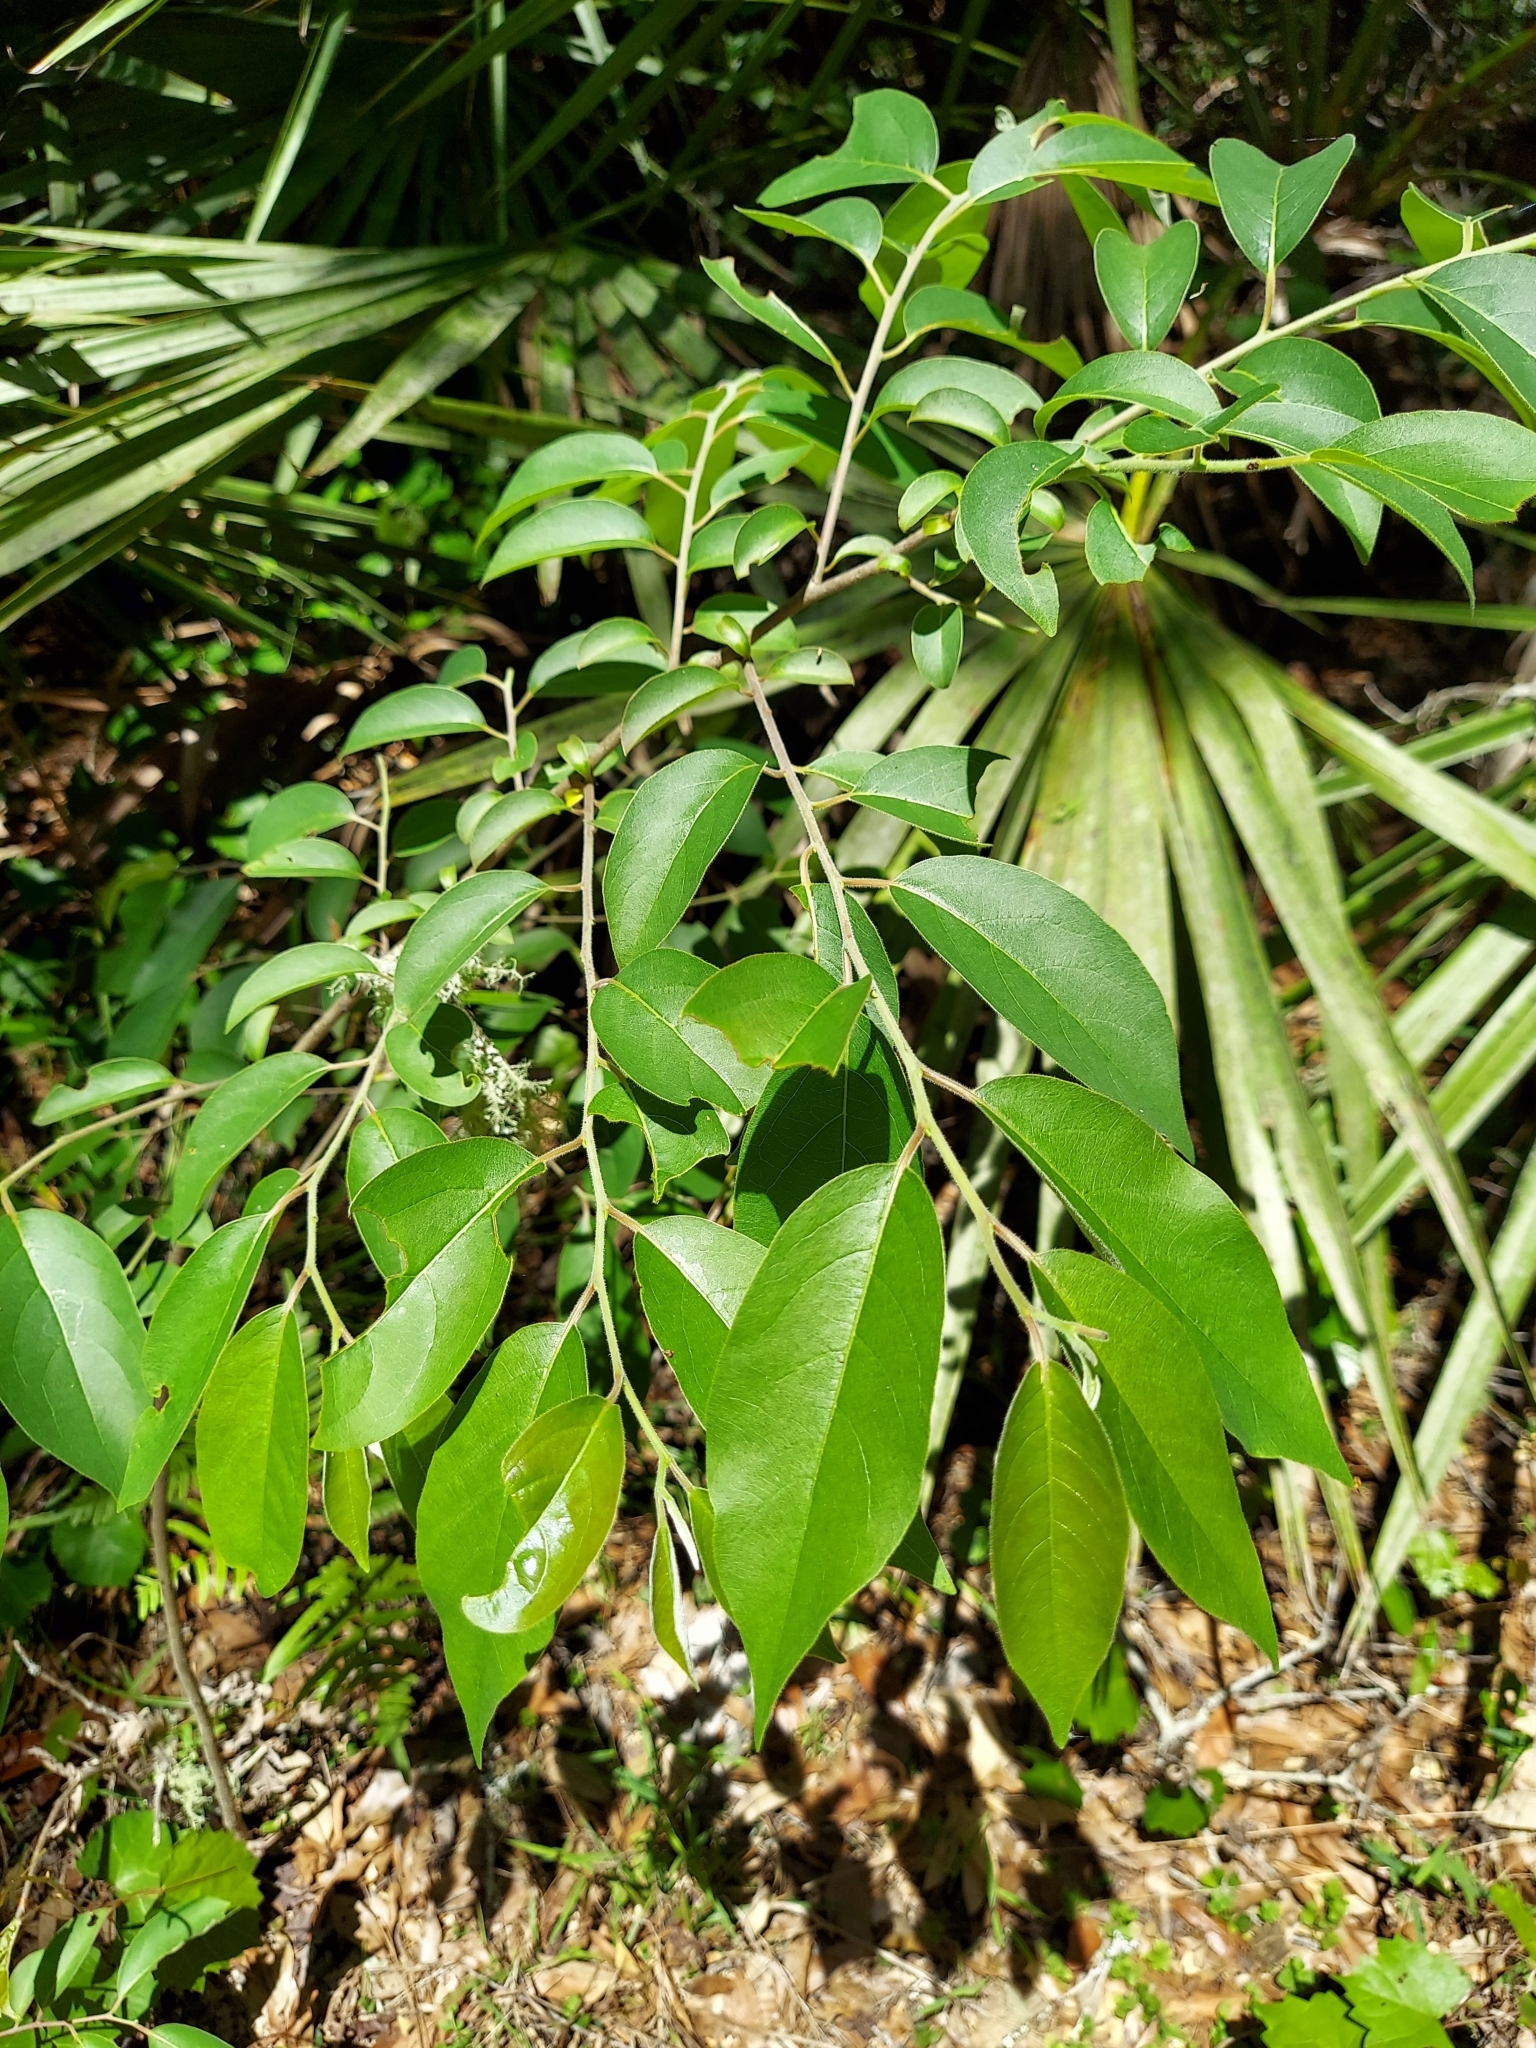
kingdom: Plantae
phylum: Tracheophyta
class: Magnoliopsida
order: Ericales
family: Ebenaceae
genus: Diospyros
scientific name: Diospyros virginiana
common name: Persimmon
